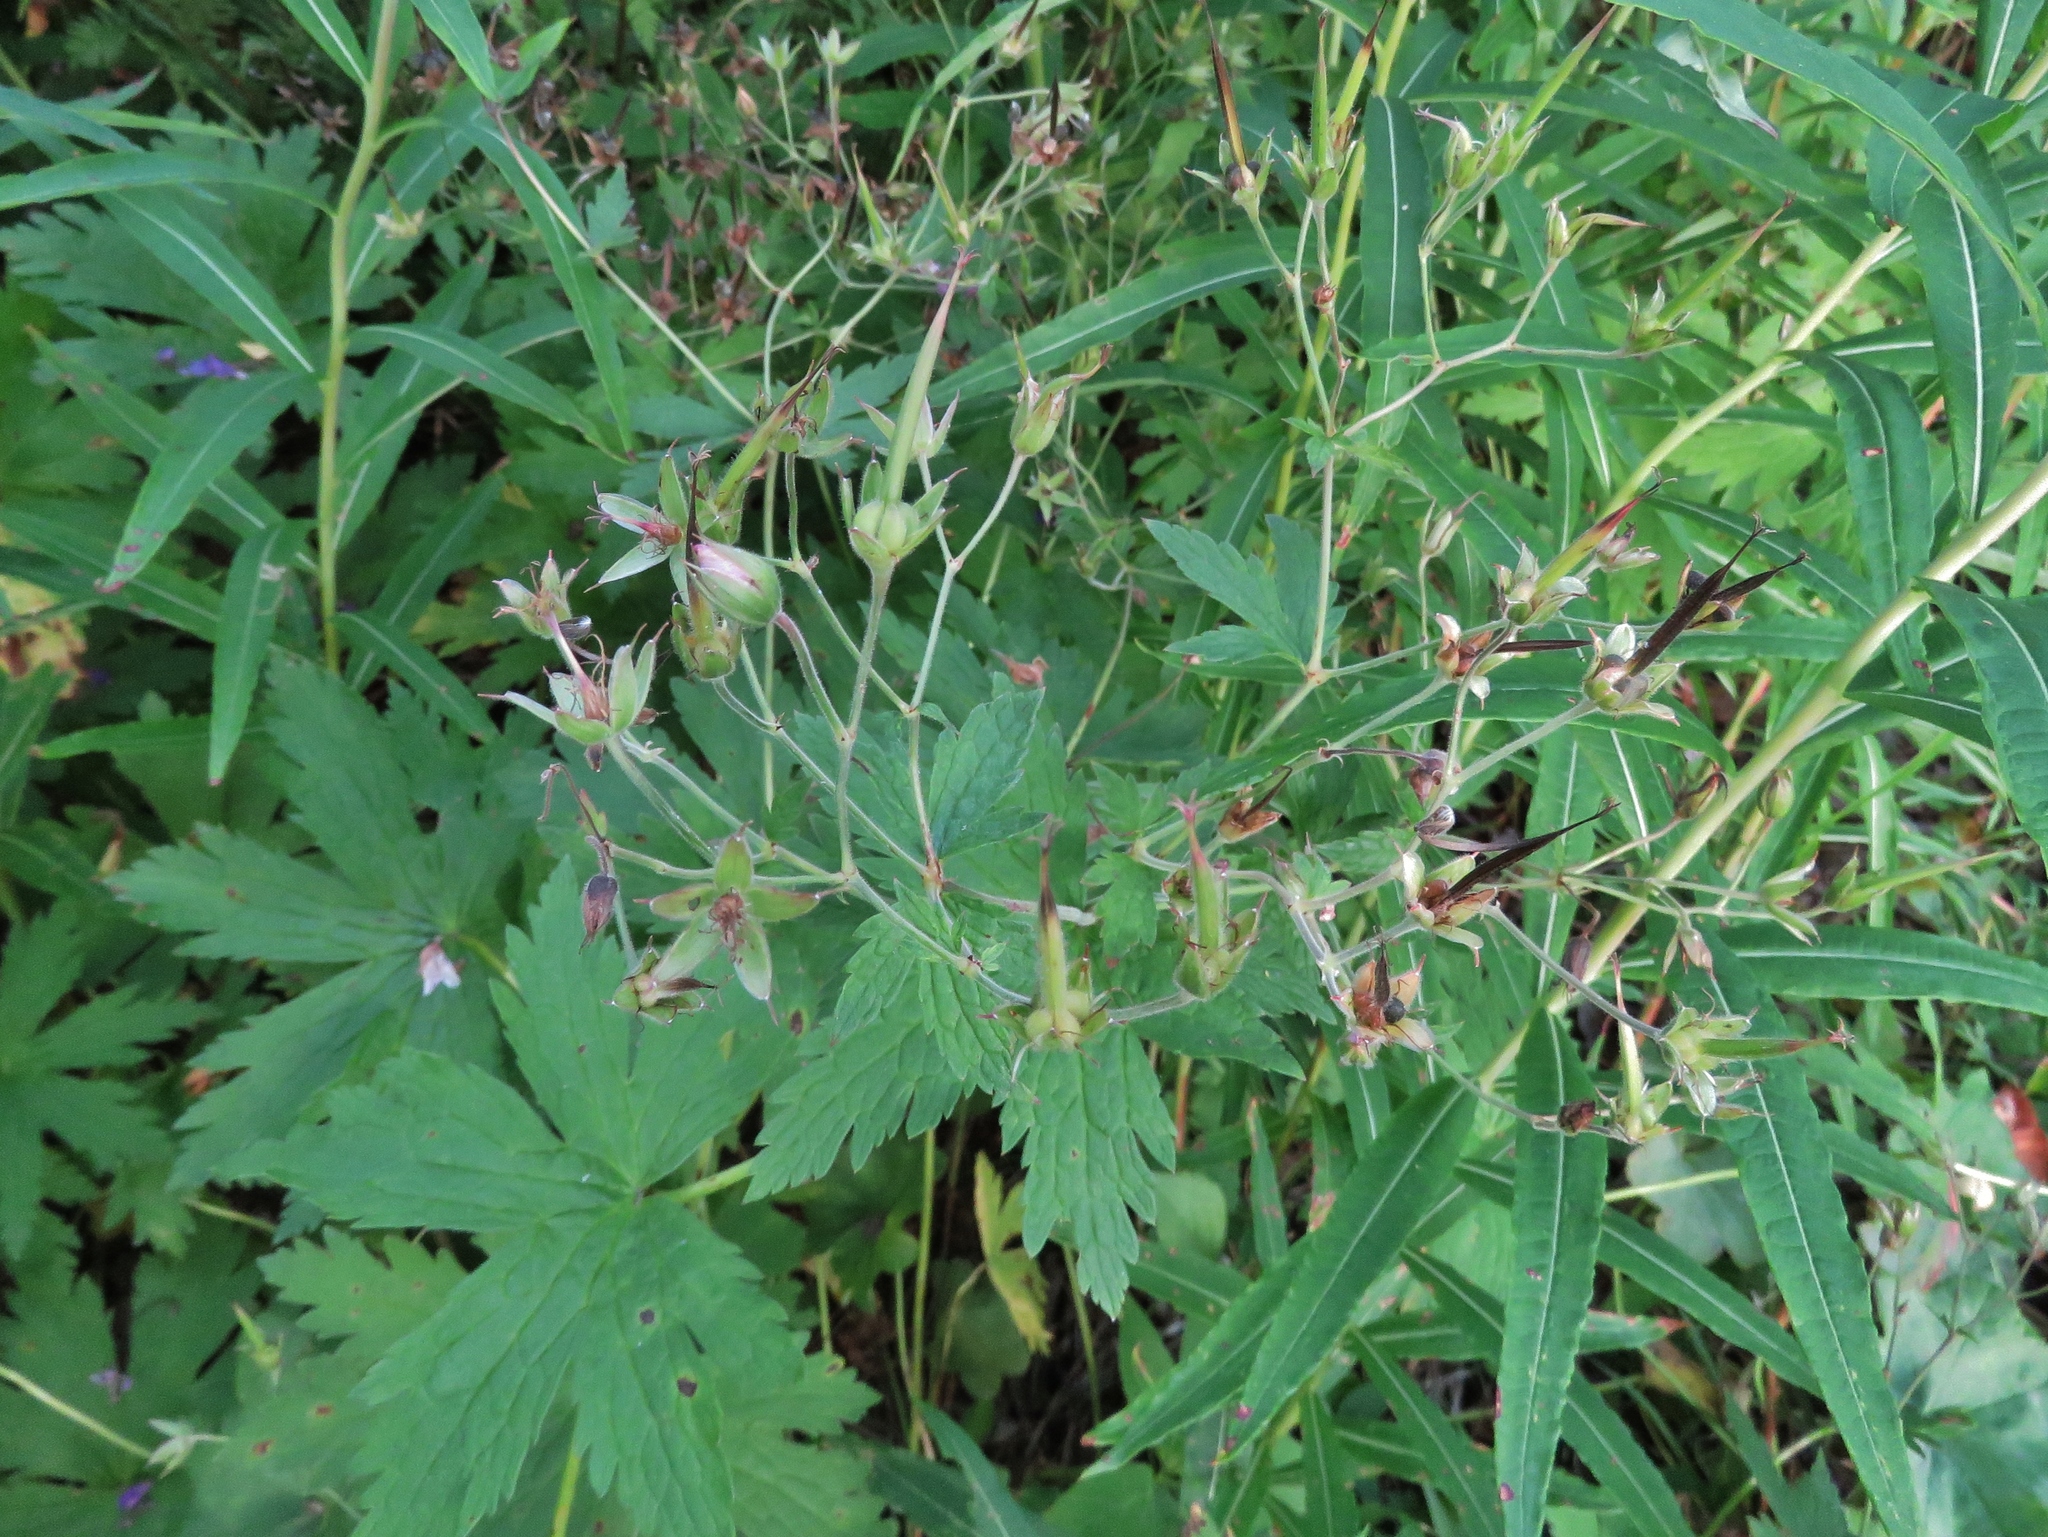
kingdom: Plantae
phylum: Tracheophyta
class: Magnoliopsida
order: Geraniales
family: Geraniaceae
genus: Geranium
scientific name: Geranium sylvaticum
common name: Wood crane's-bill
